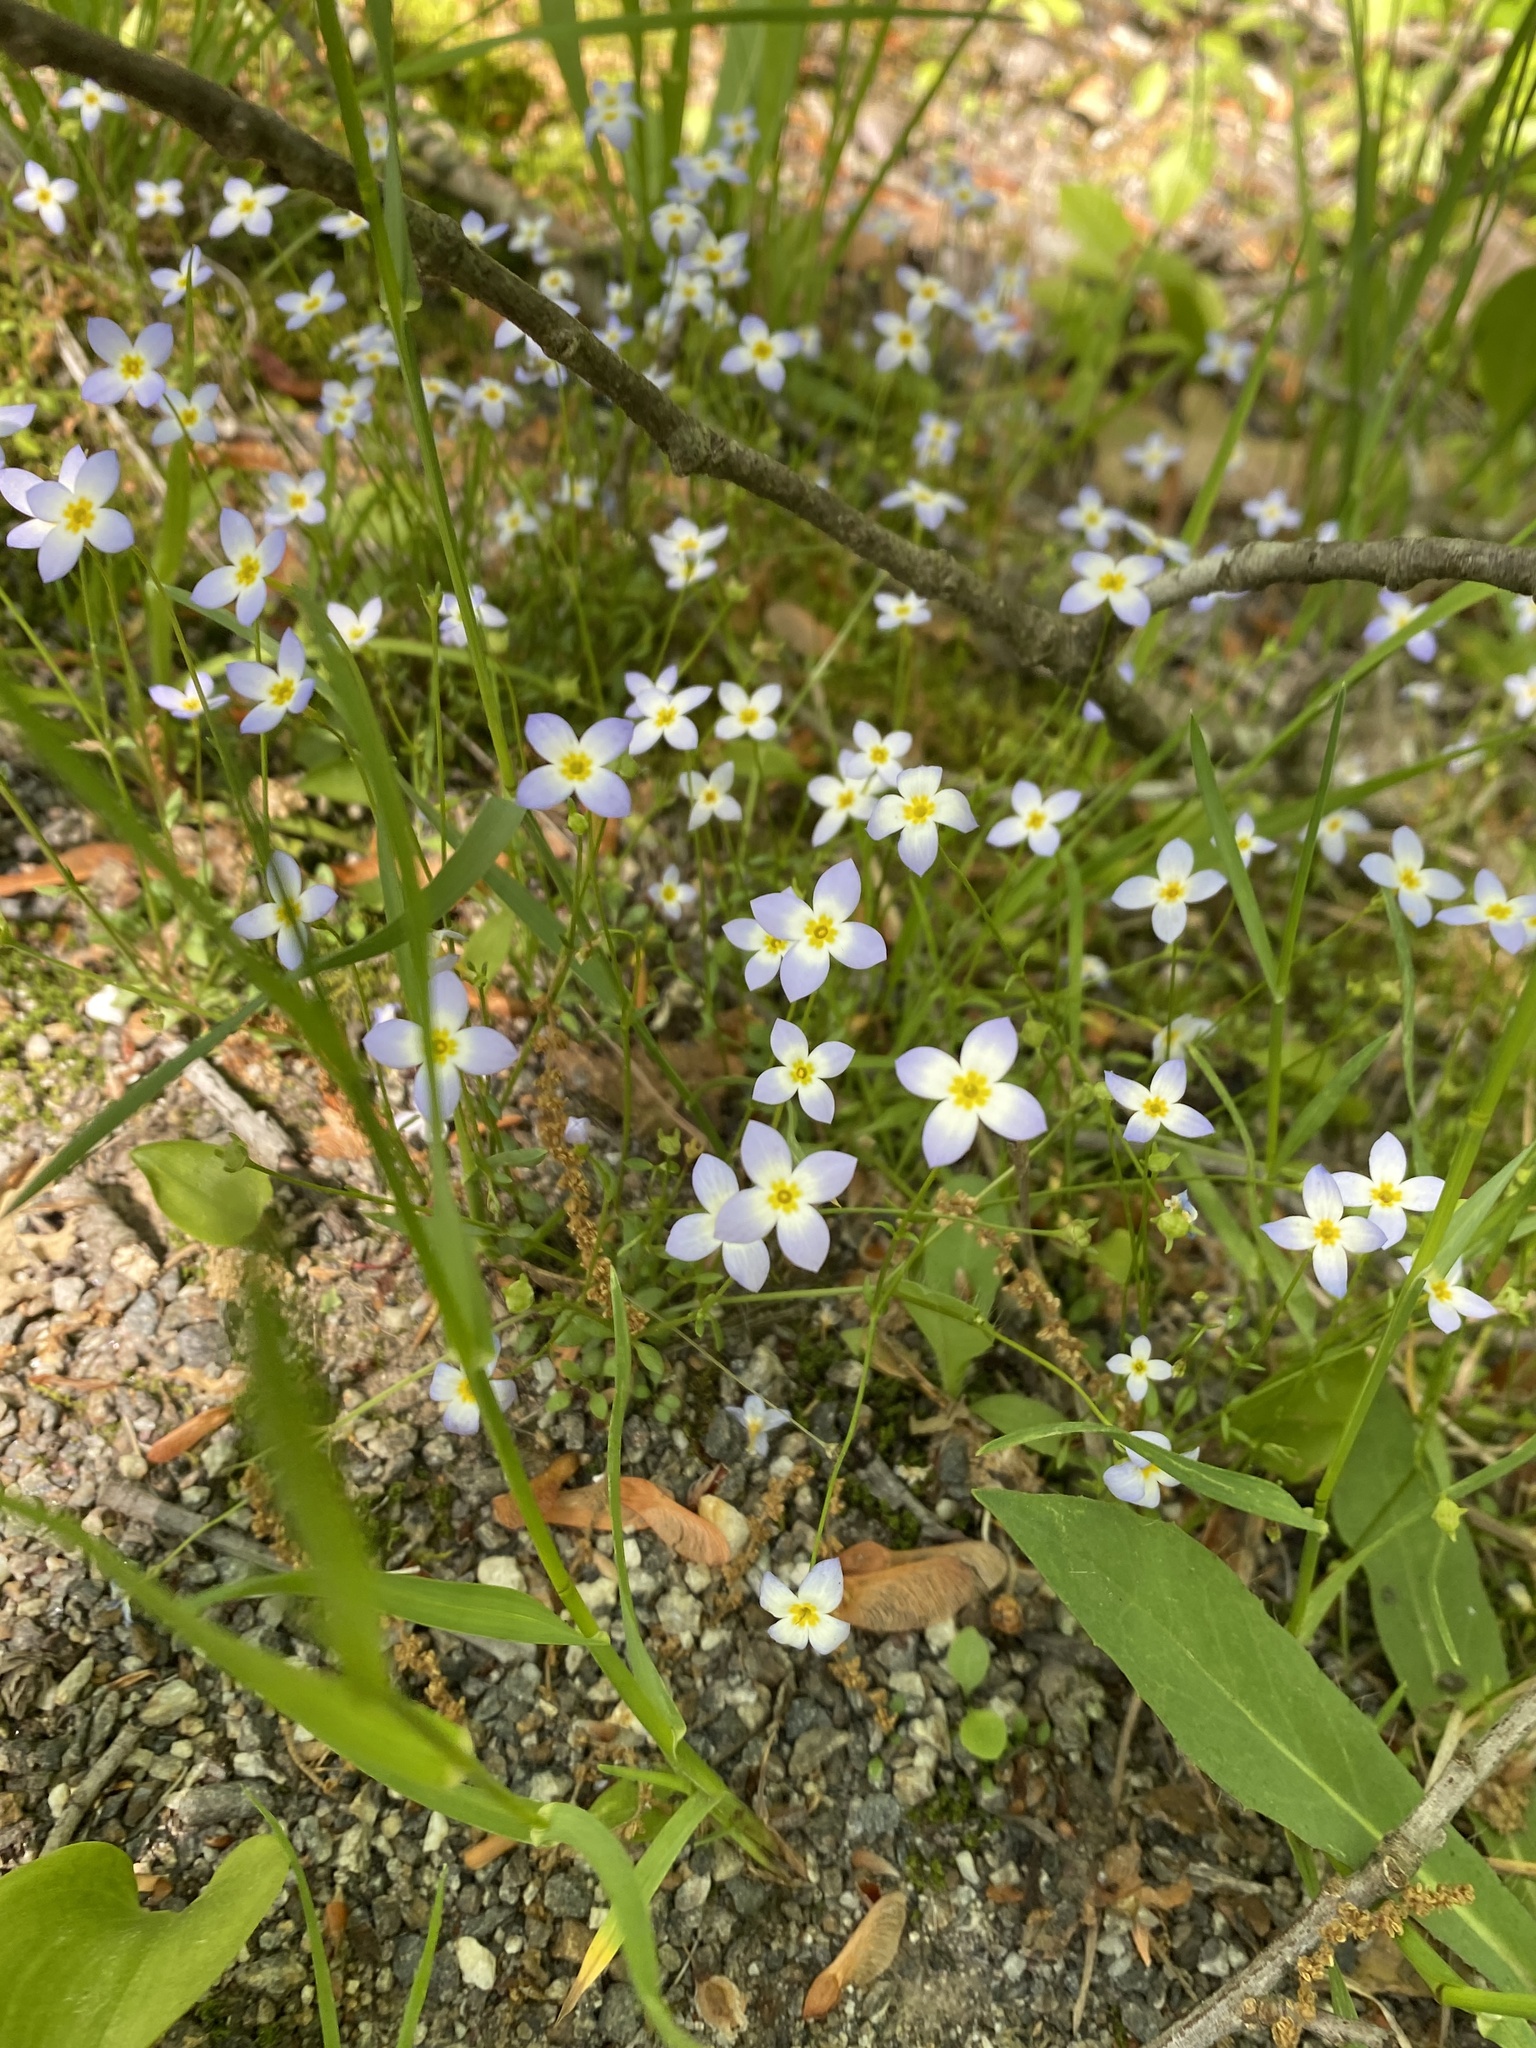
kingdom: Plantae
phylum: Tracheophyta
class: Magnoliopsida
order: Gentianales
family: Rubiaceae
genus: Houstonia
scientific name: Houstonia caerulea
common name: Bluets
